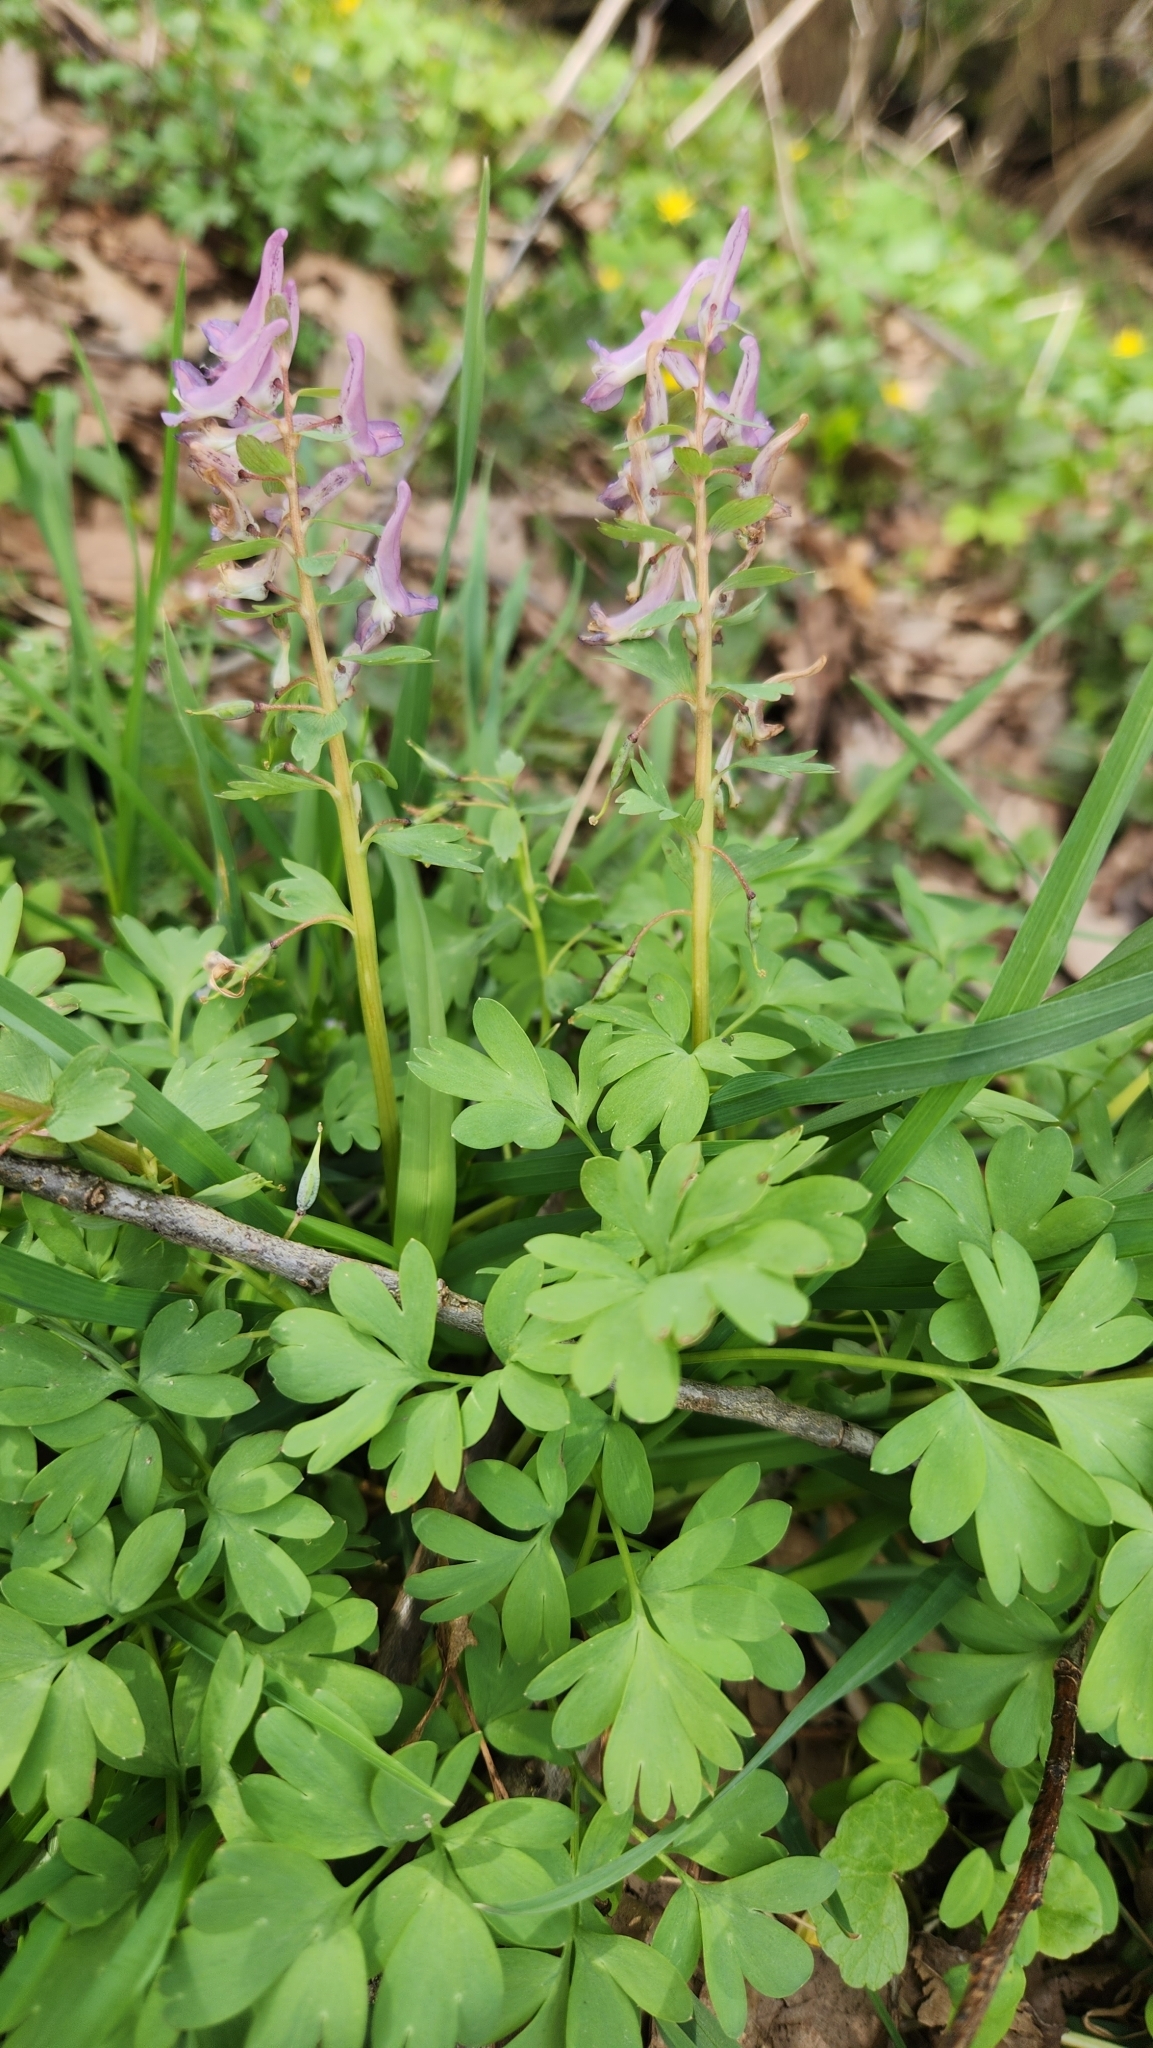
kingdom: Plantae
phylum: Tracheophyta
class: Magnoliopsida
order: Ranunculales
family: Papaveraceae
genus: Corydalis
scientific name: Corydalis solida
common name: Bird-in-a-bush
